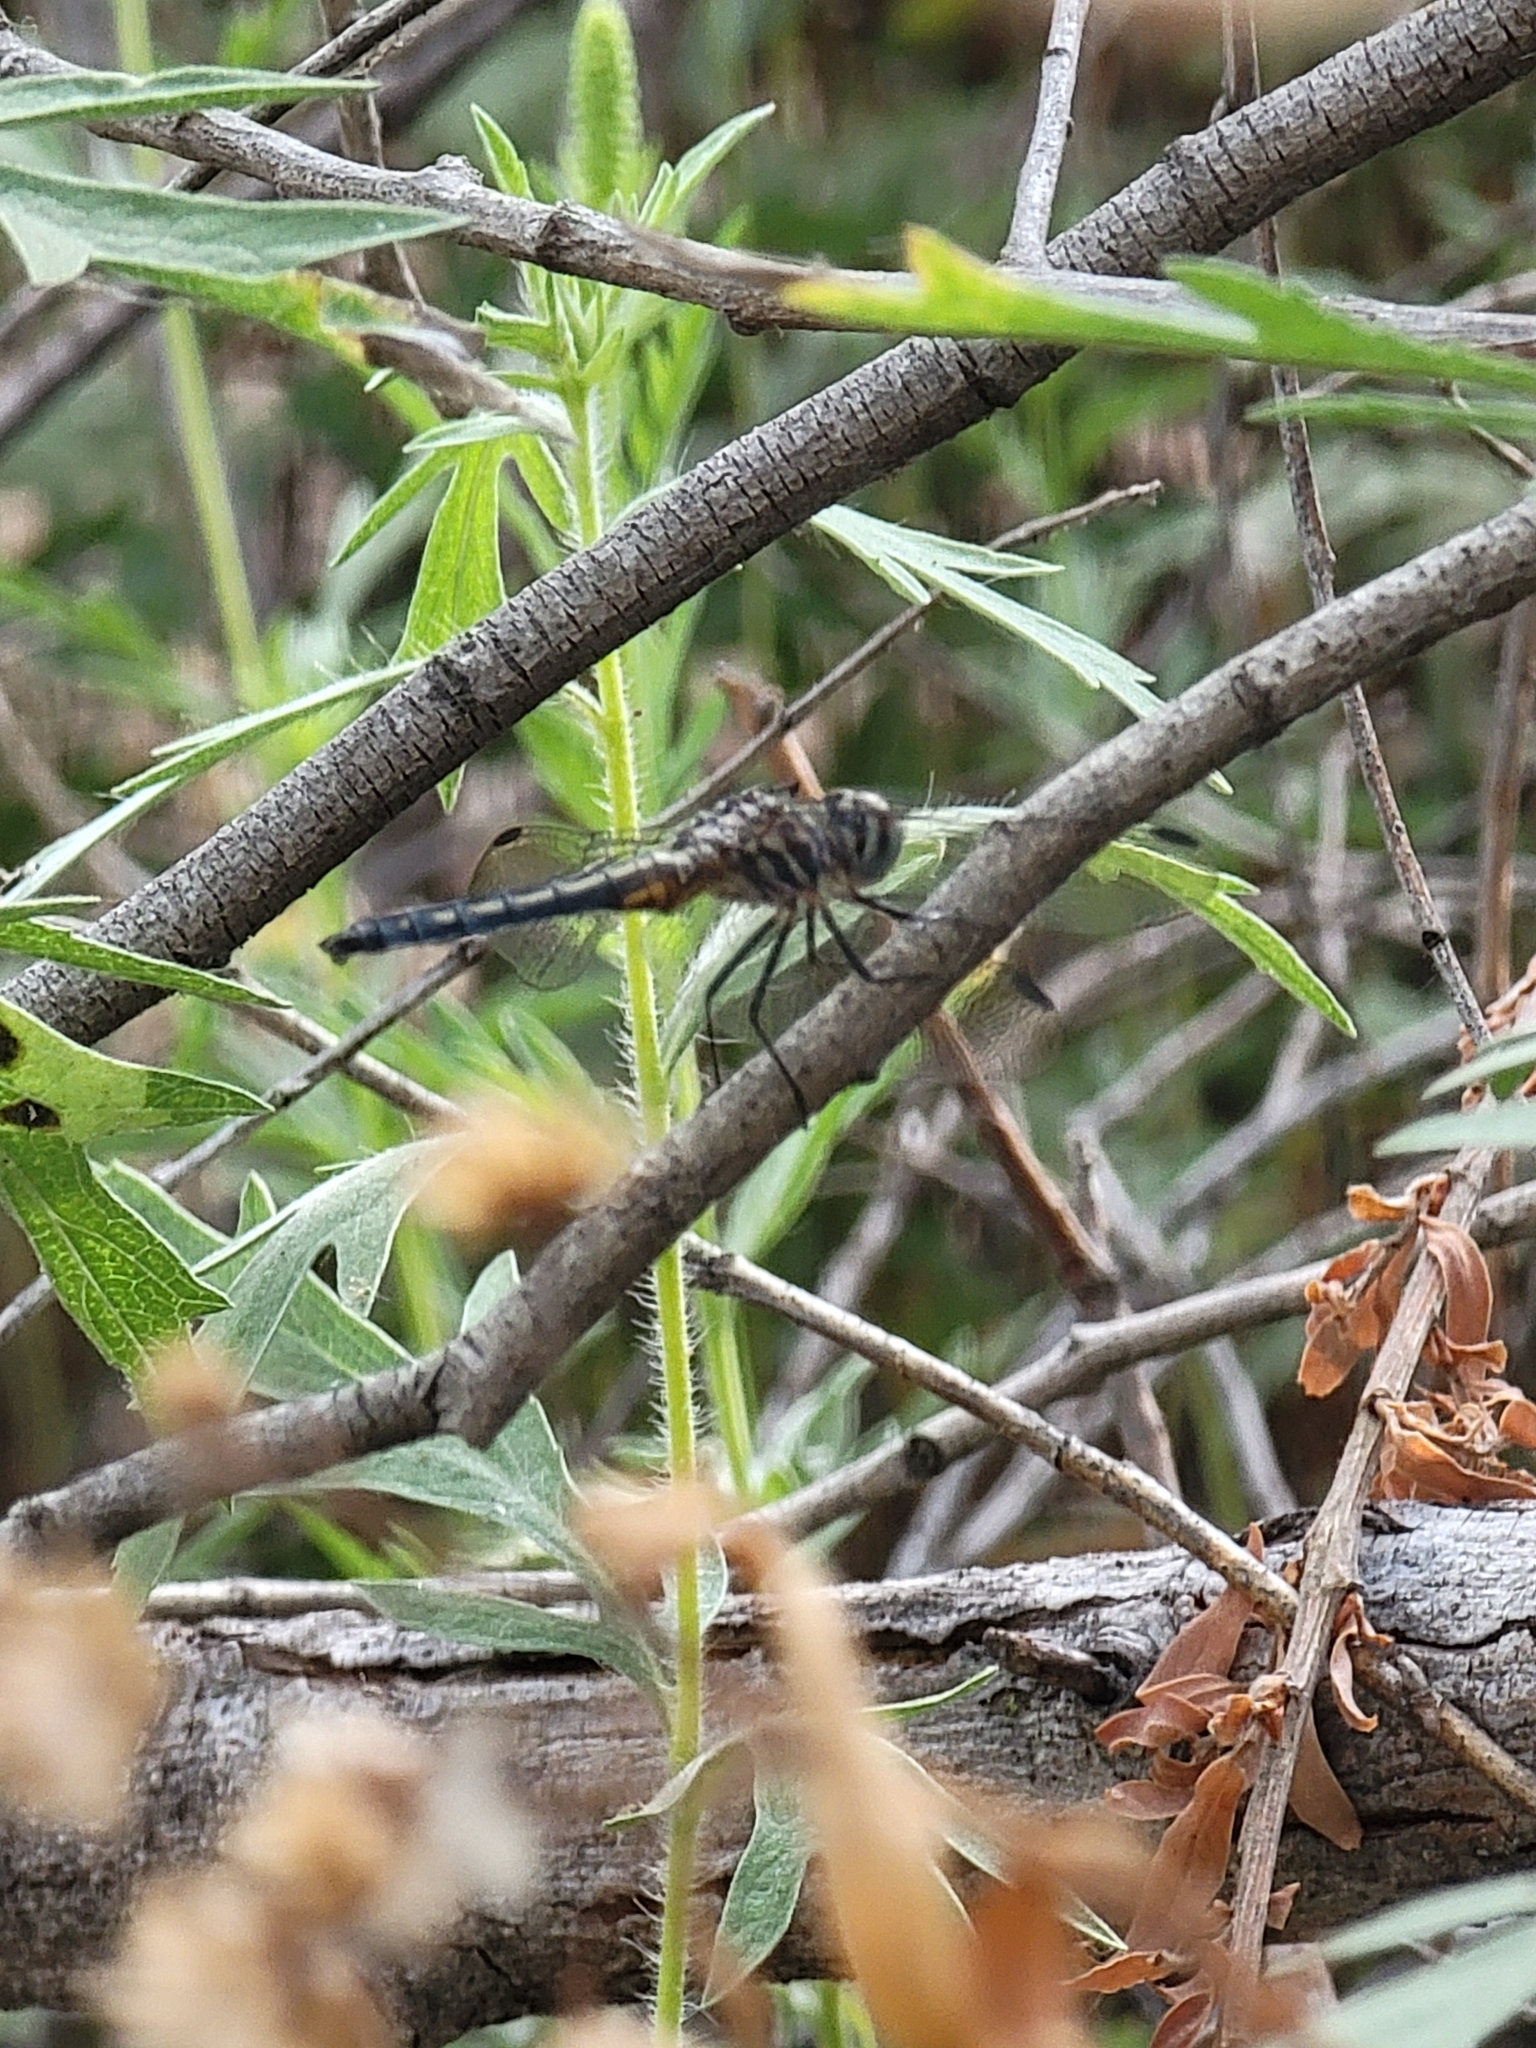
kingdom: Animalia
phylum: Arthropoda
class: Insecta
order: Odonata
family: Libellulidae
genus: Pachydiplax
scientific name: Pachydiplax longipennis
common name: Blue dasher
